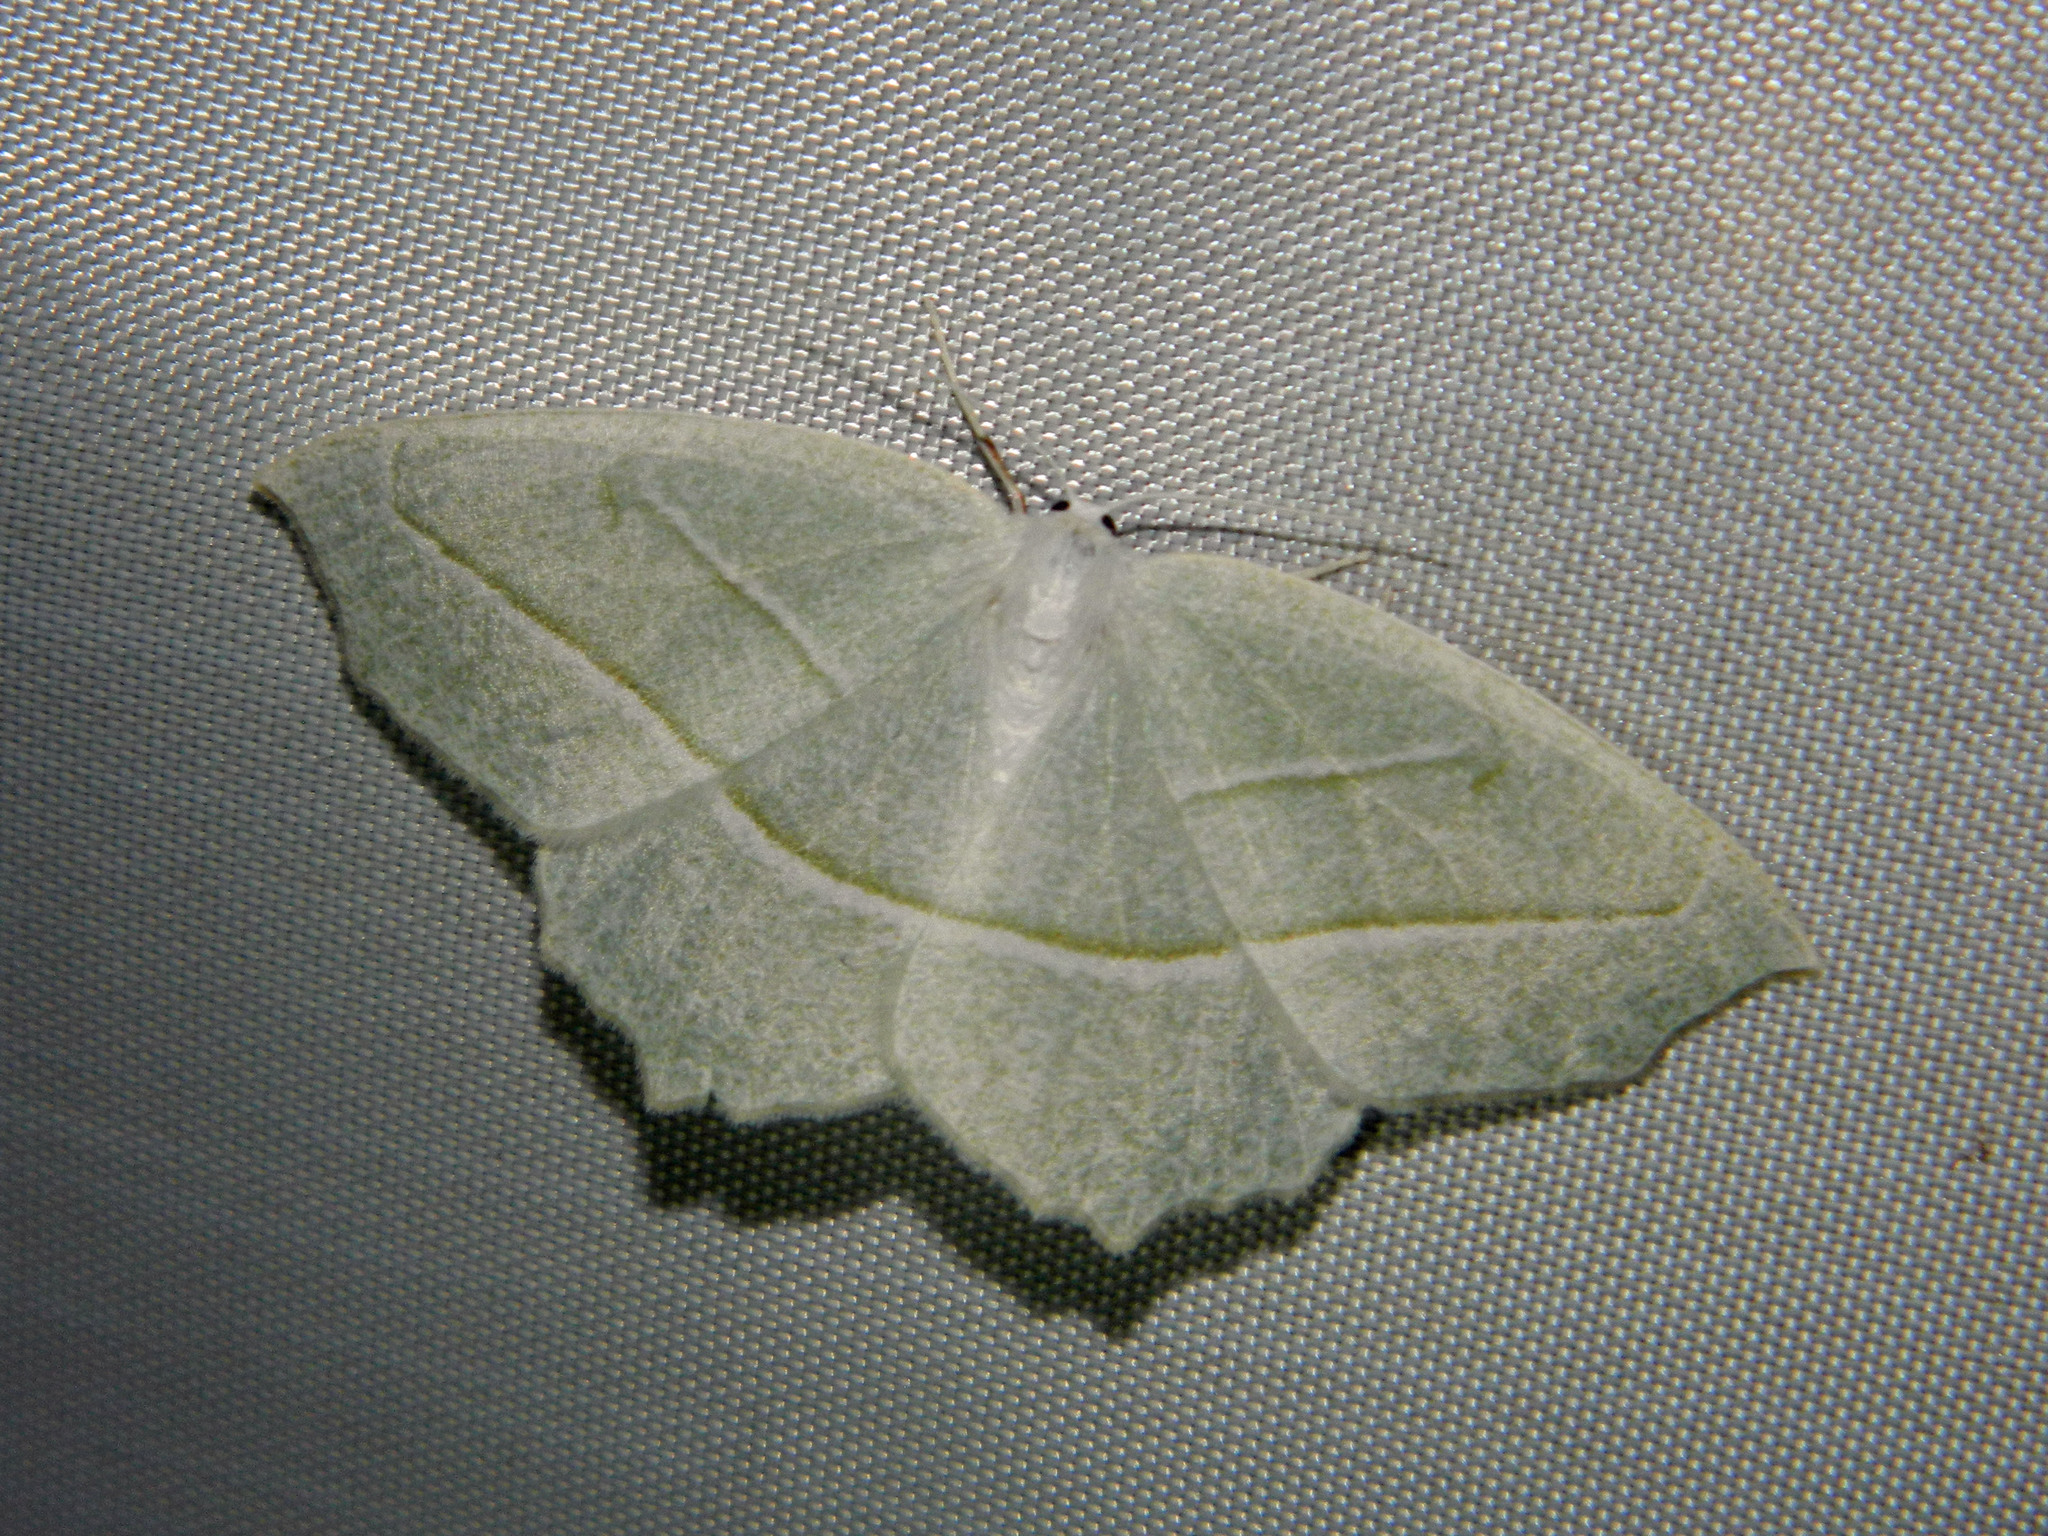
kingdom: Animalia
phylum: Arthropoda
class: Insecta
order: Lepidoptera
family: Geometridae
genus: Campaea
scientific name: Campaea perlata
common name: Fringed looper
